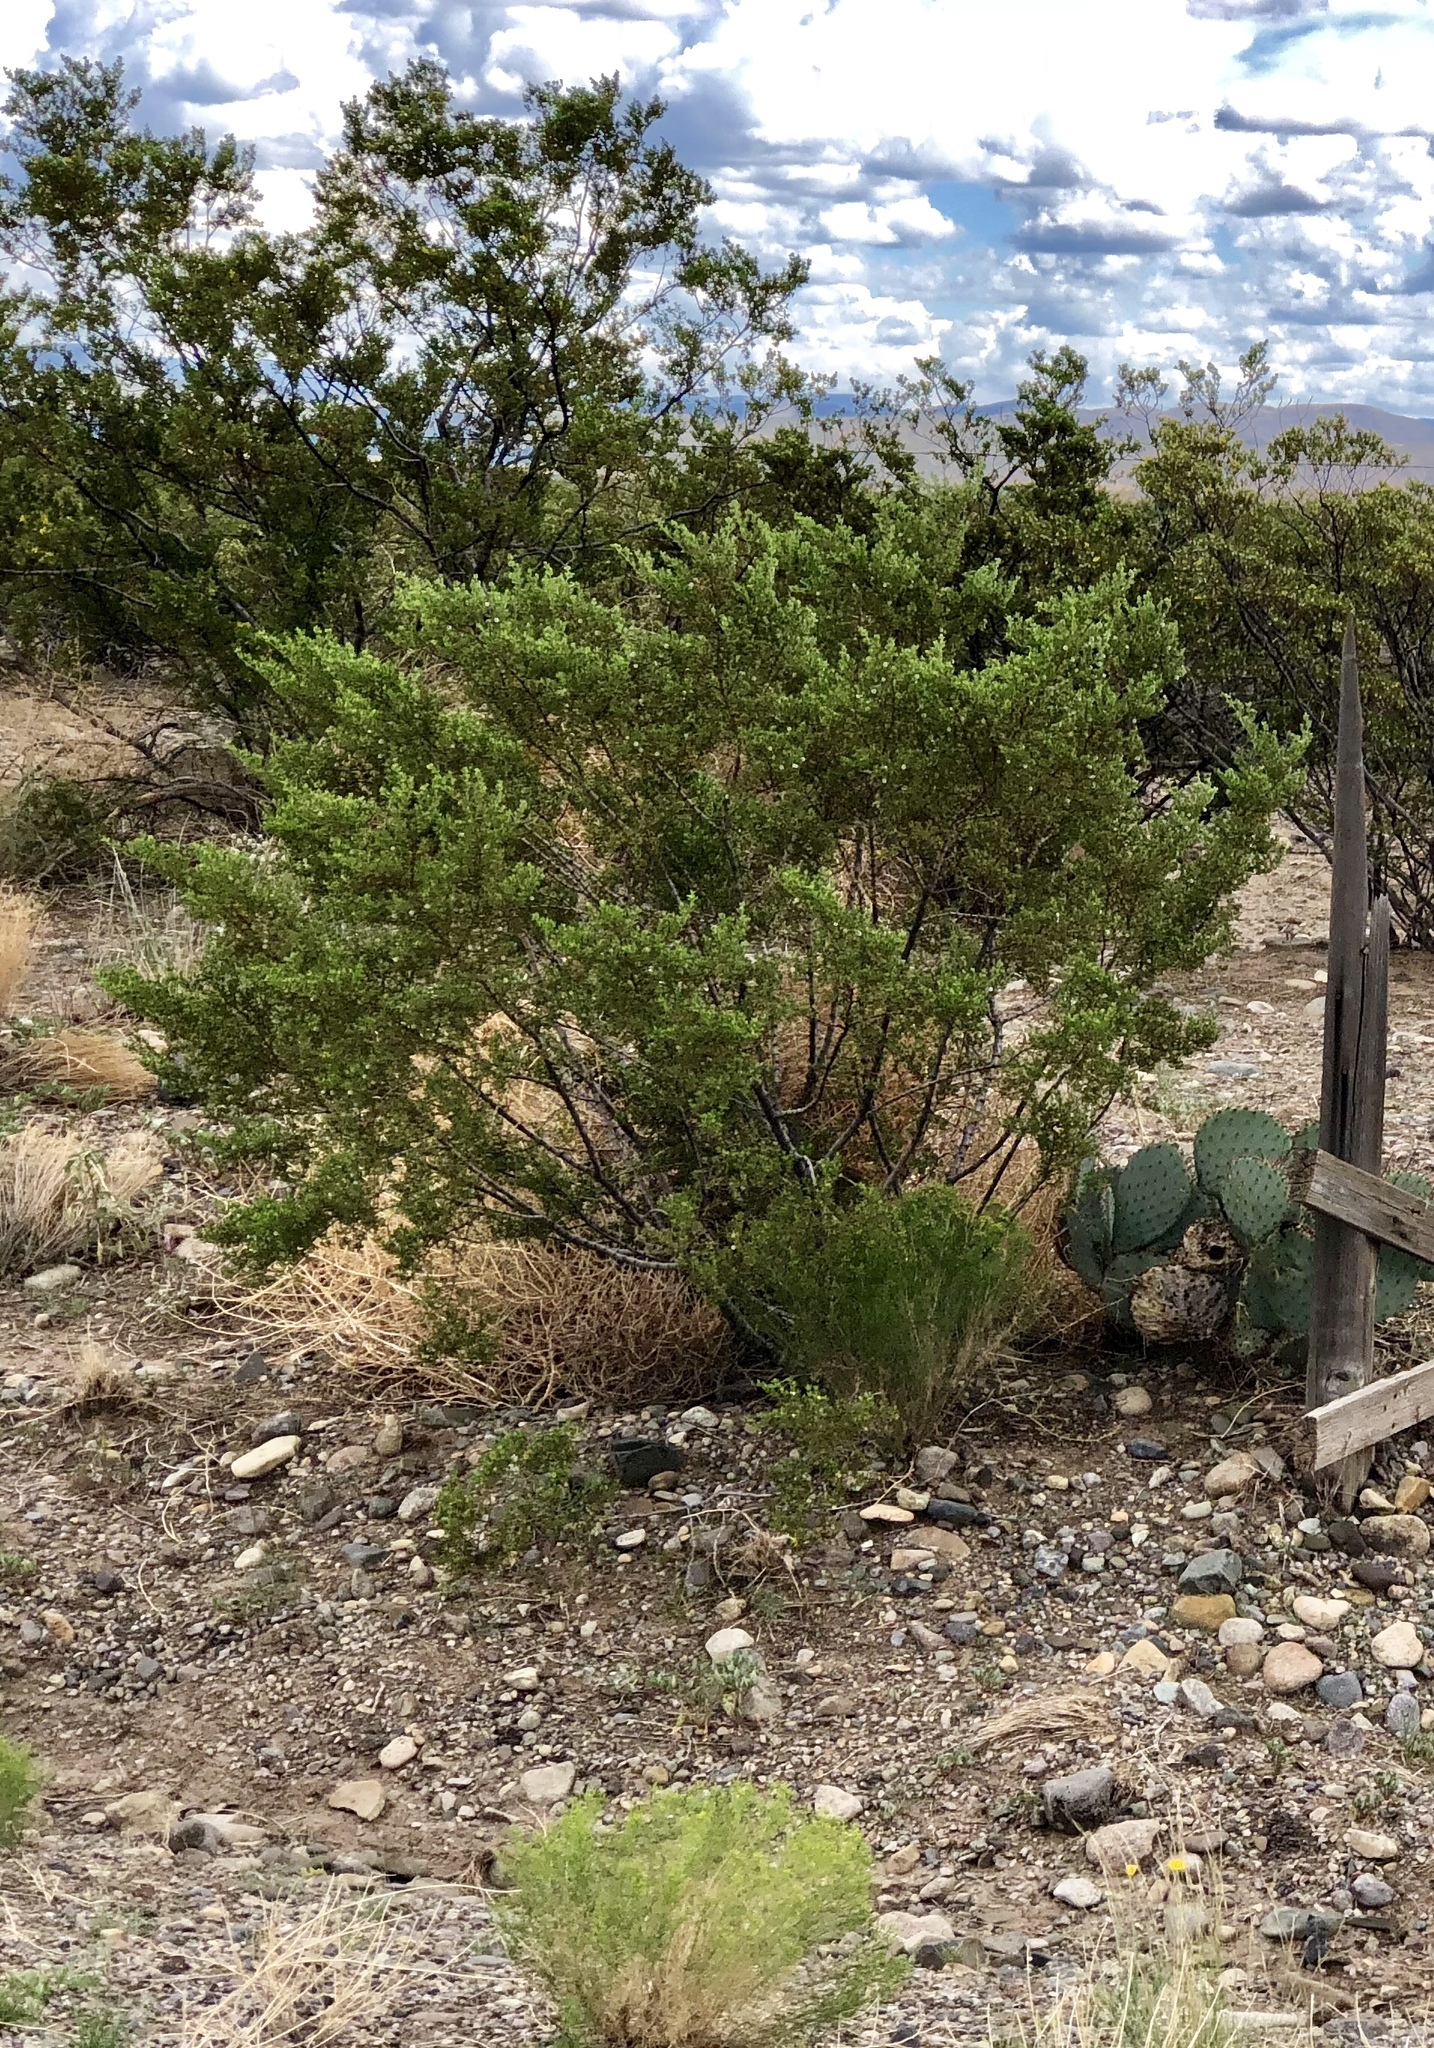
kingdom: Plantae
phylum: Tracheophyta
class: Magnoliopsida
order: Zygophyllales
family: Zygophyllaceae
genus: Larrea
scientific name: Larrea tridentata
